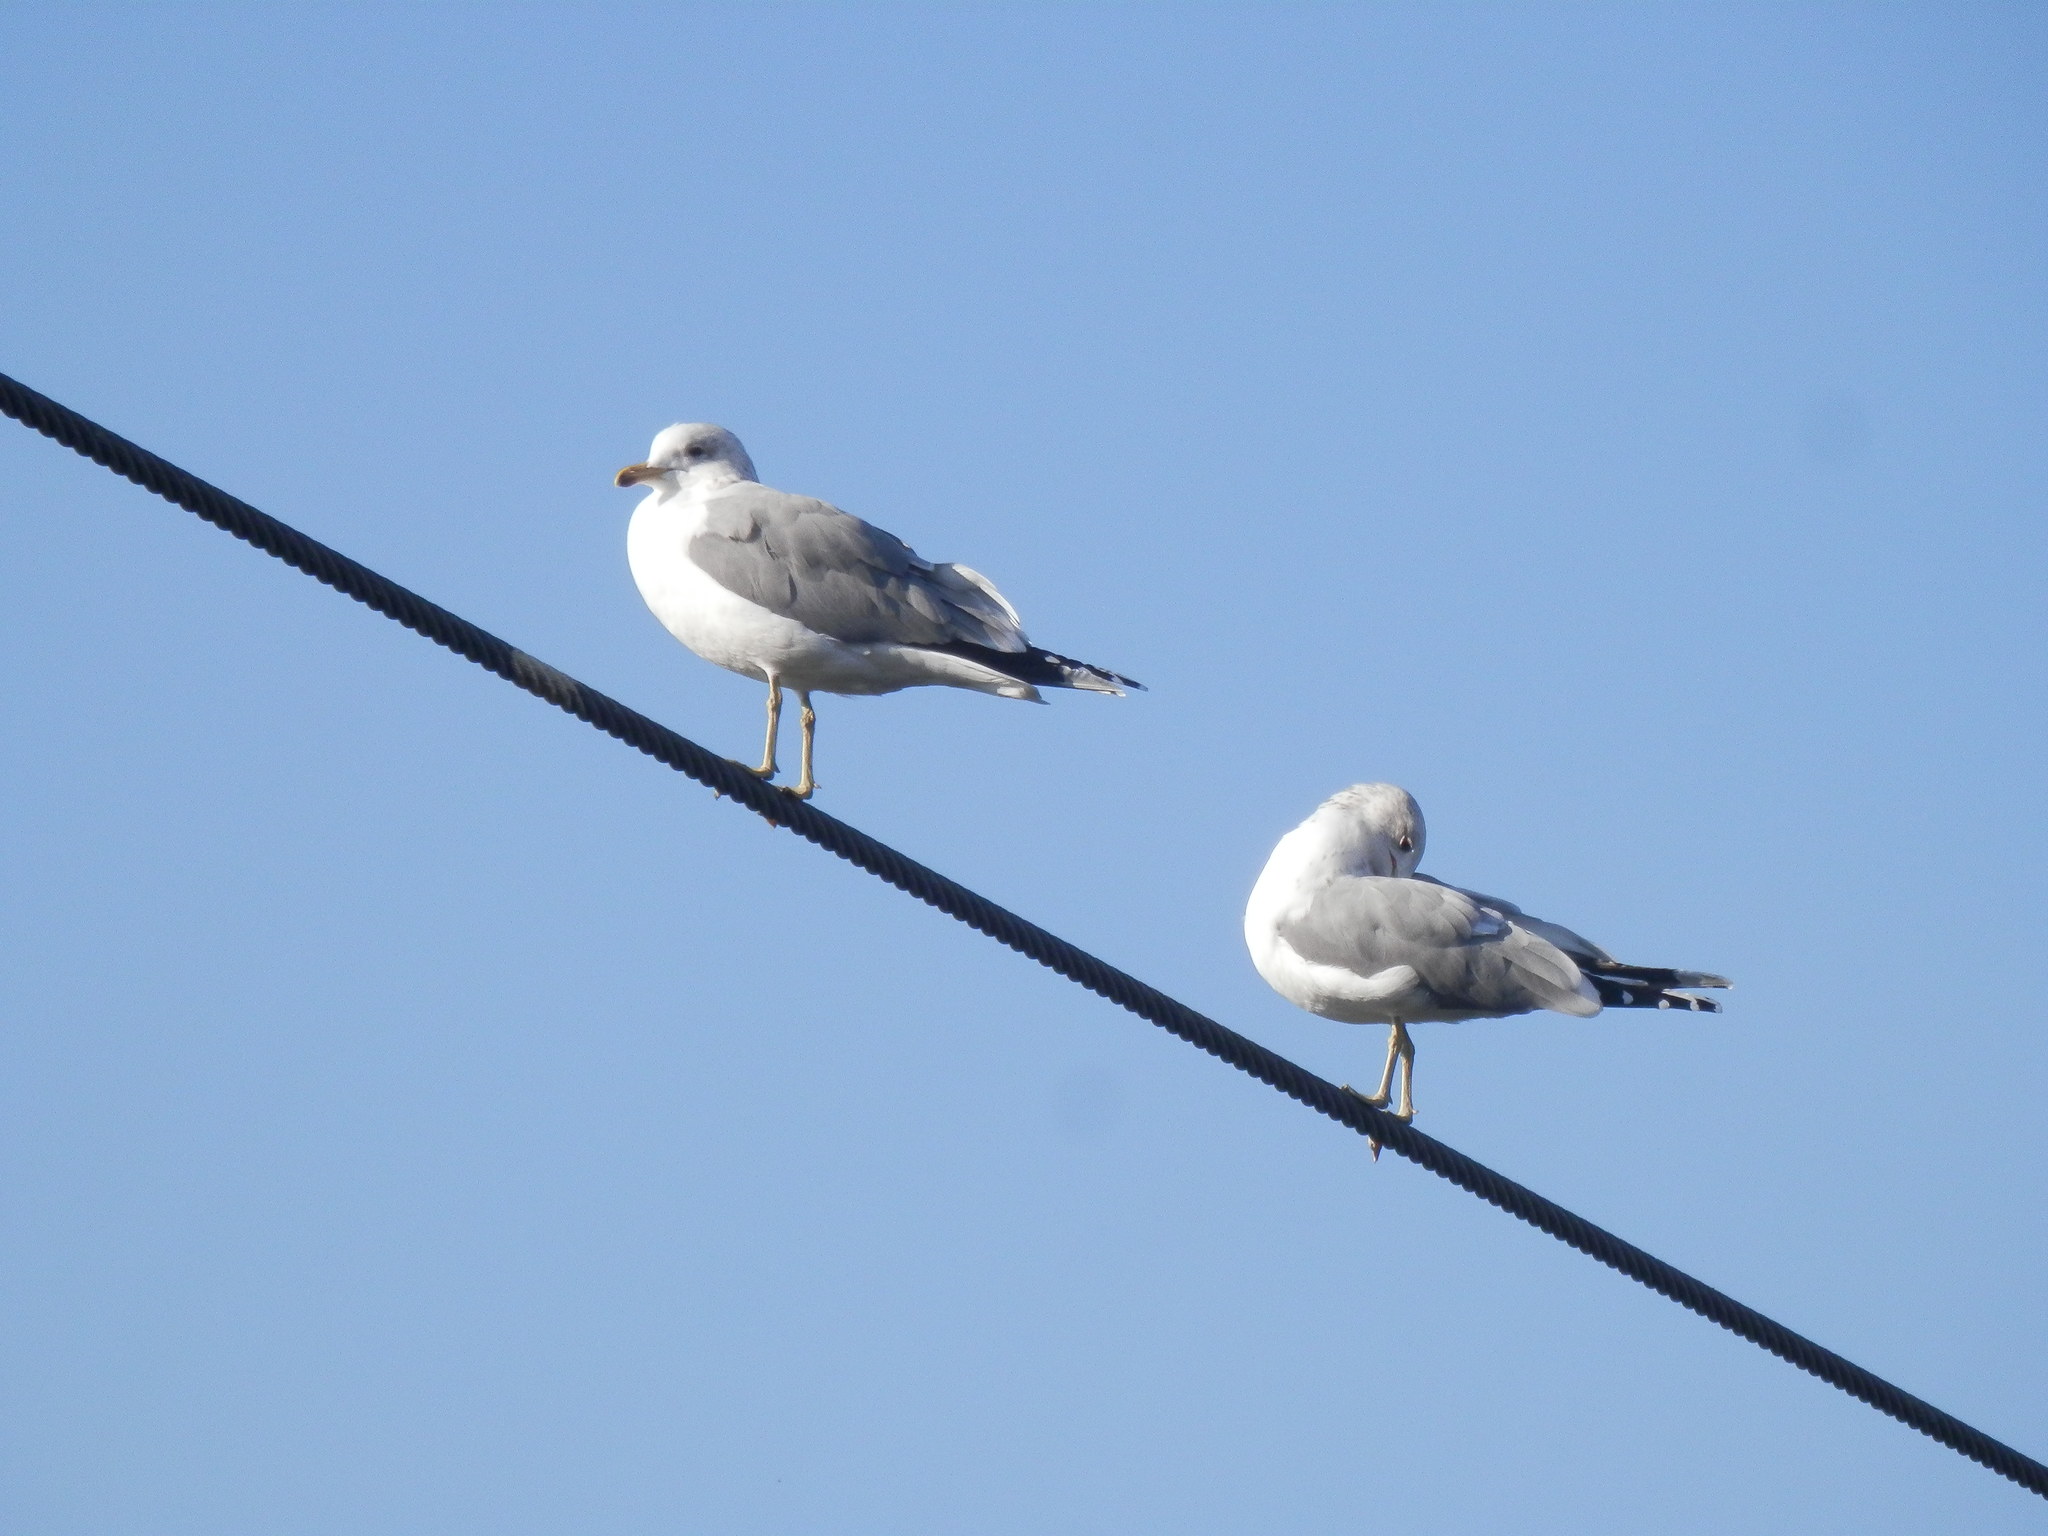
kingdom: Animalia
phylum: Chordata
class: Aves
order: Charadriiformes
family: Laridae
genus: Larus
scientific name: Larus californicus
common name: California gull
